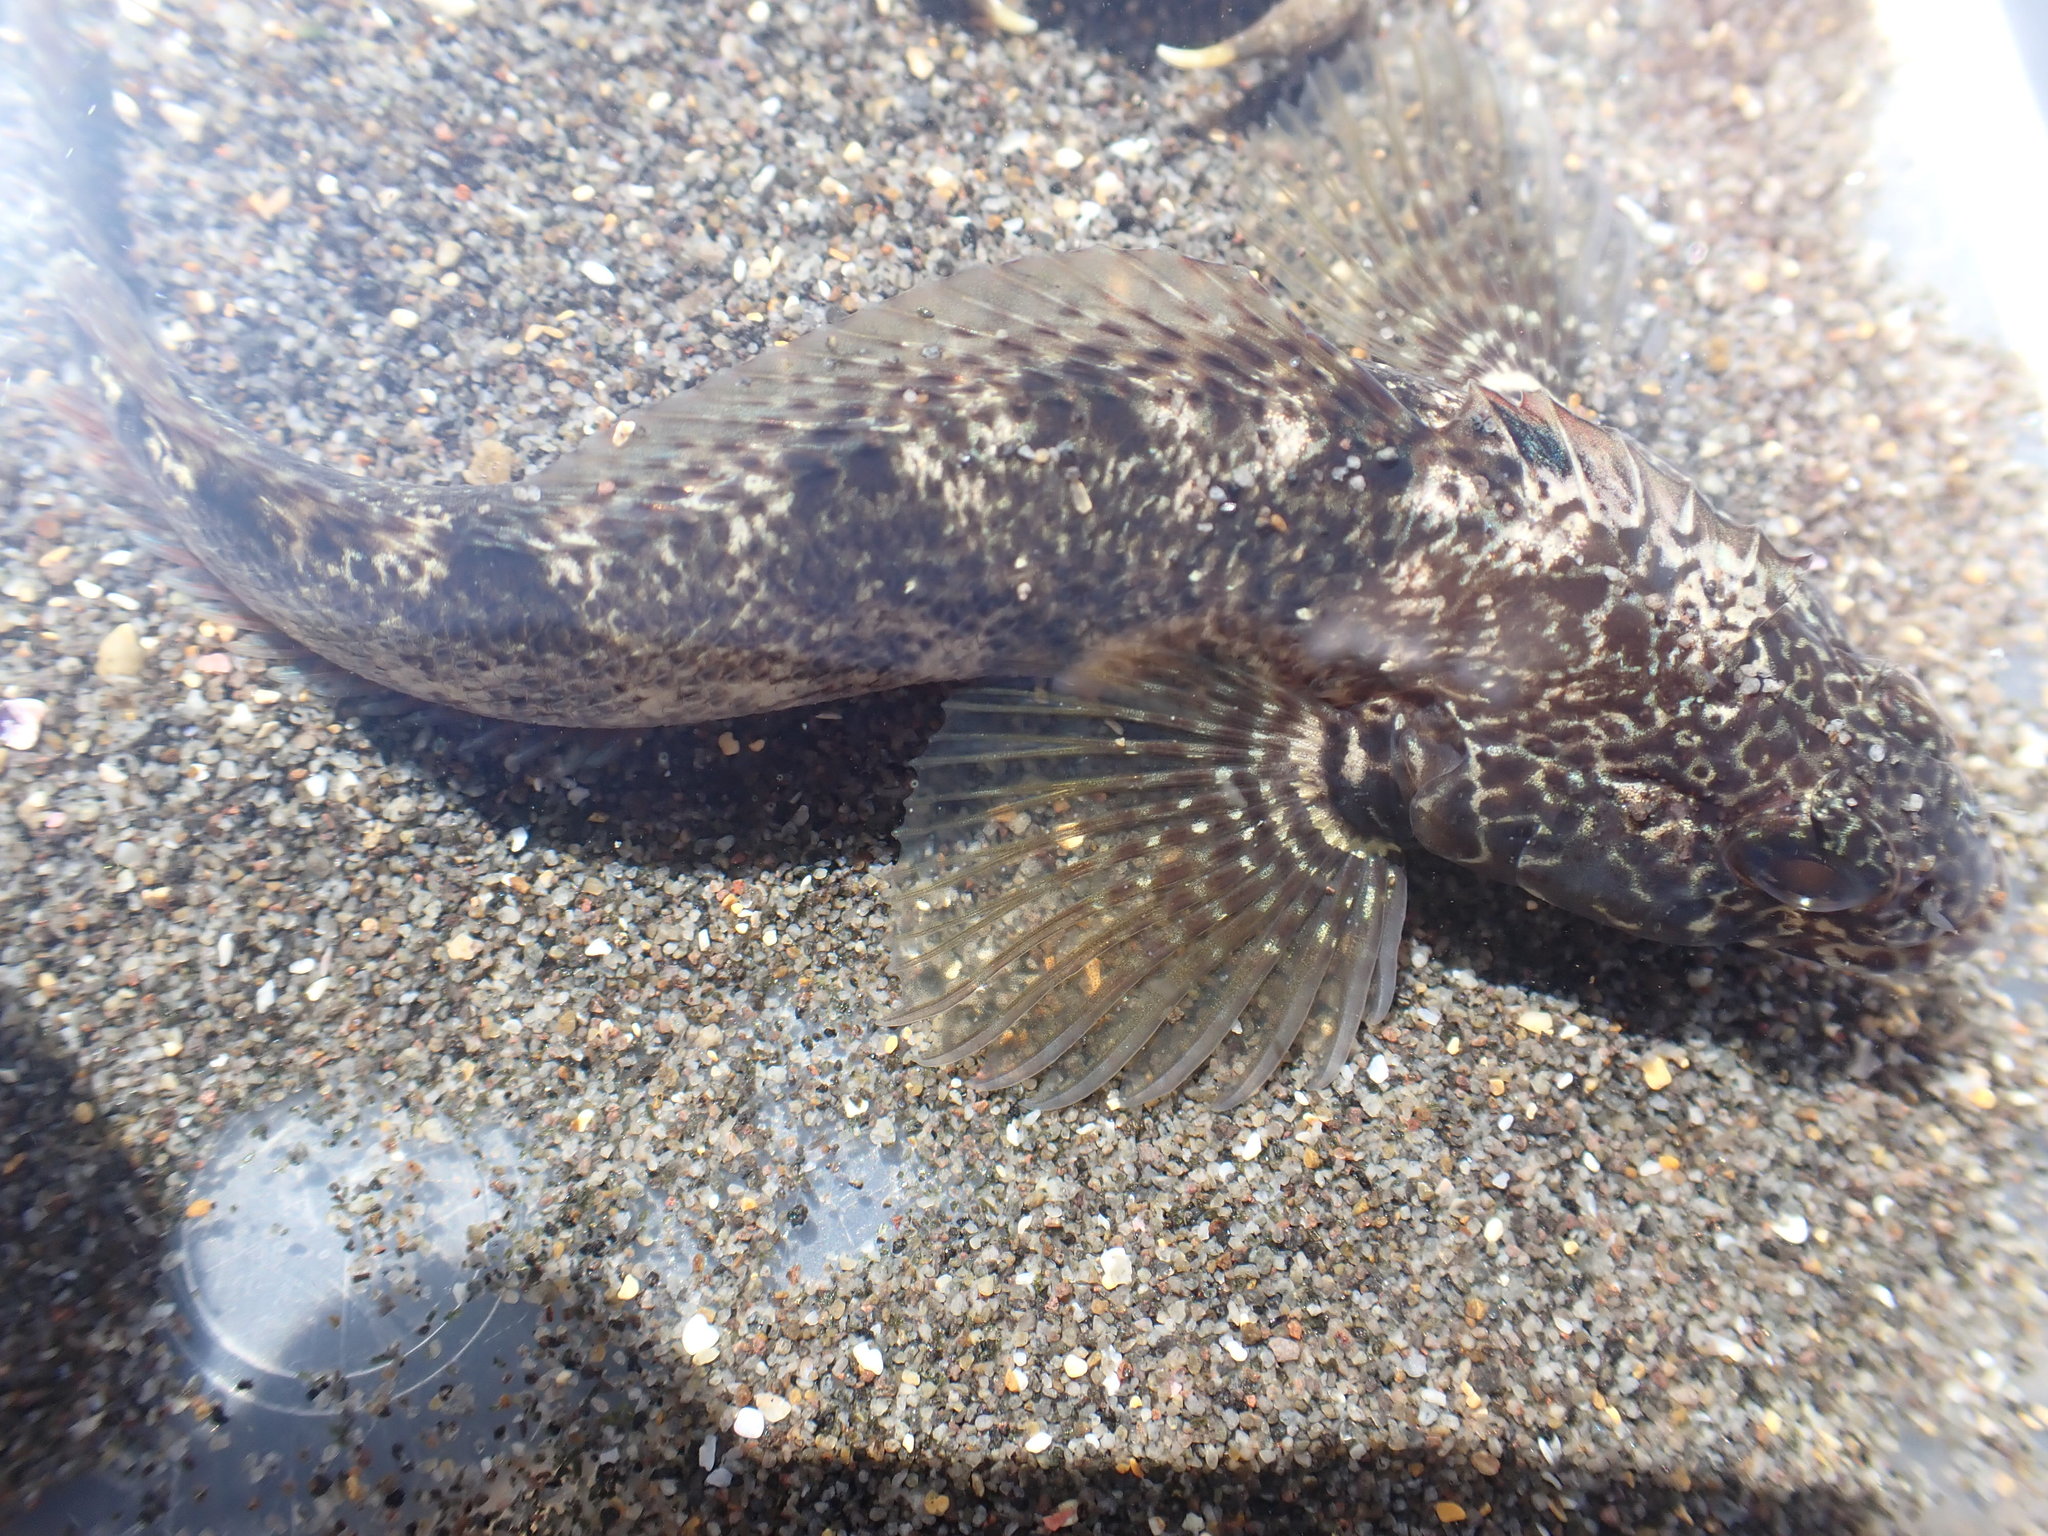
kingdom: Animalia
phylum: Chordata
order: Perciformes
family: Tripterygiidae
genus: Forsterygion
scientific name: Forsterygion gymnotum
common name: Multifid-tentacled robust triplefin
